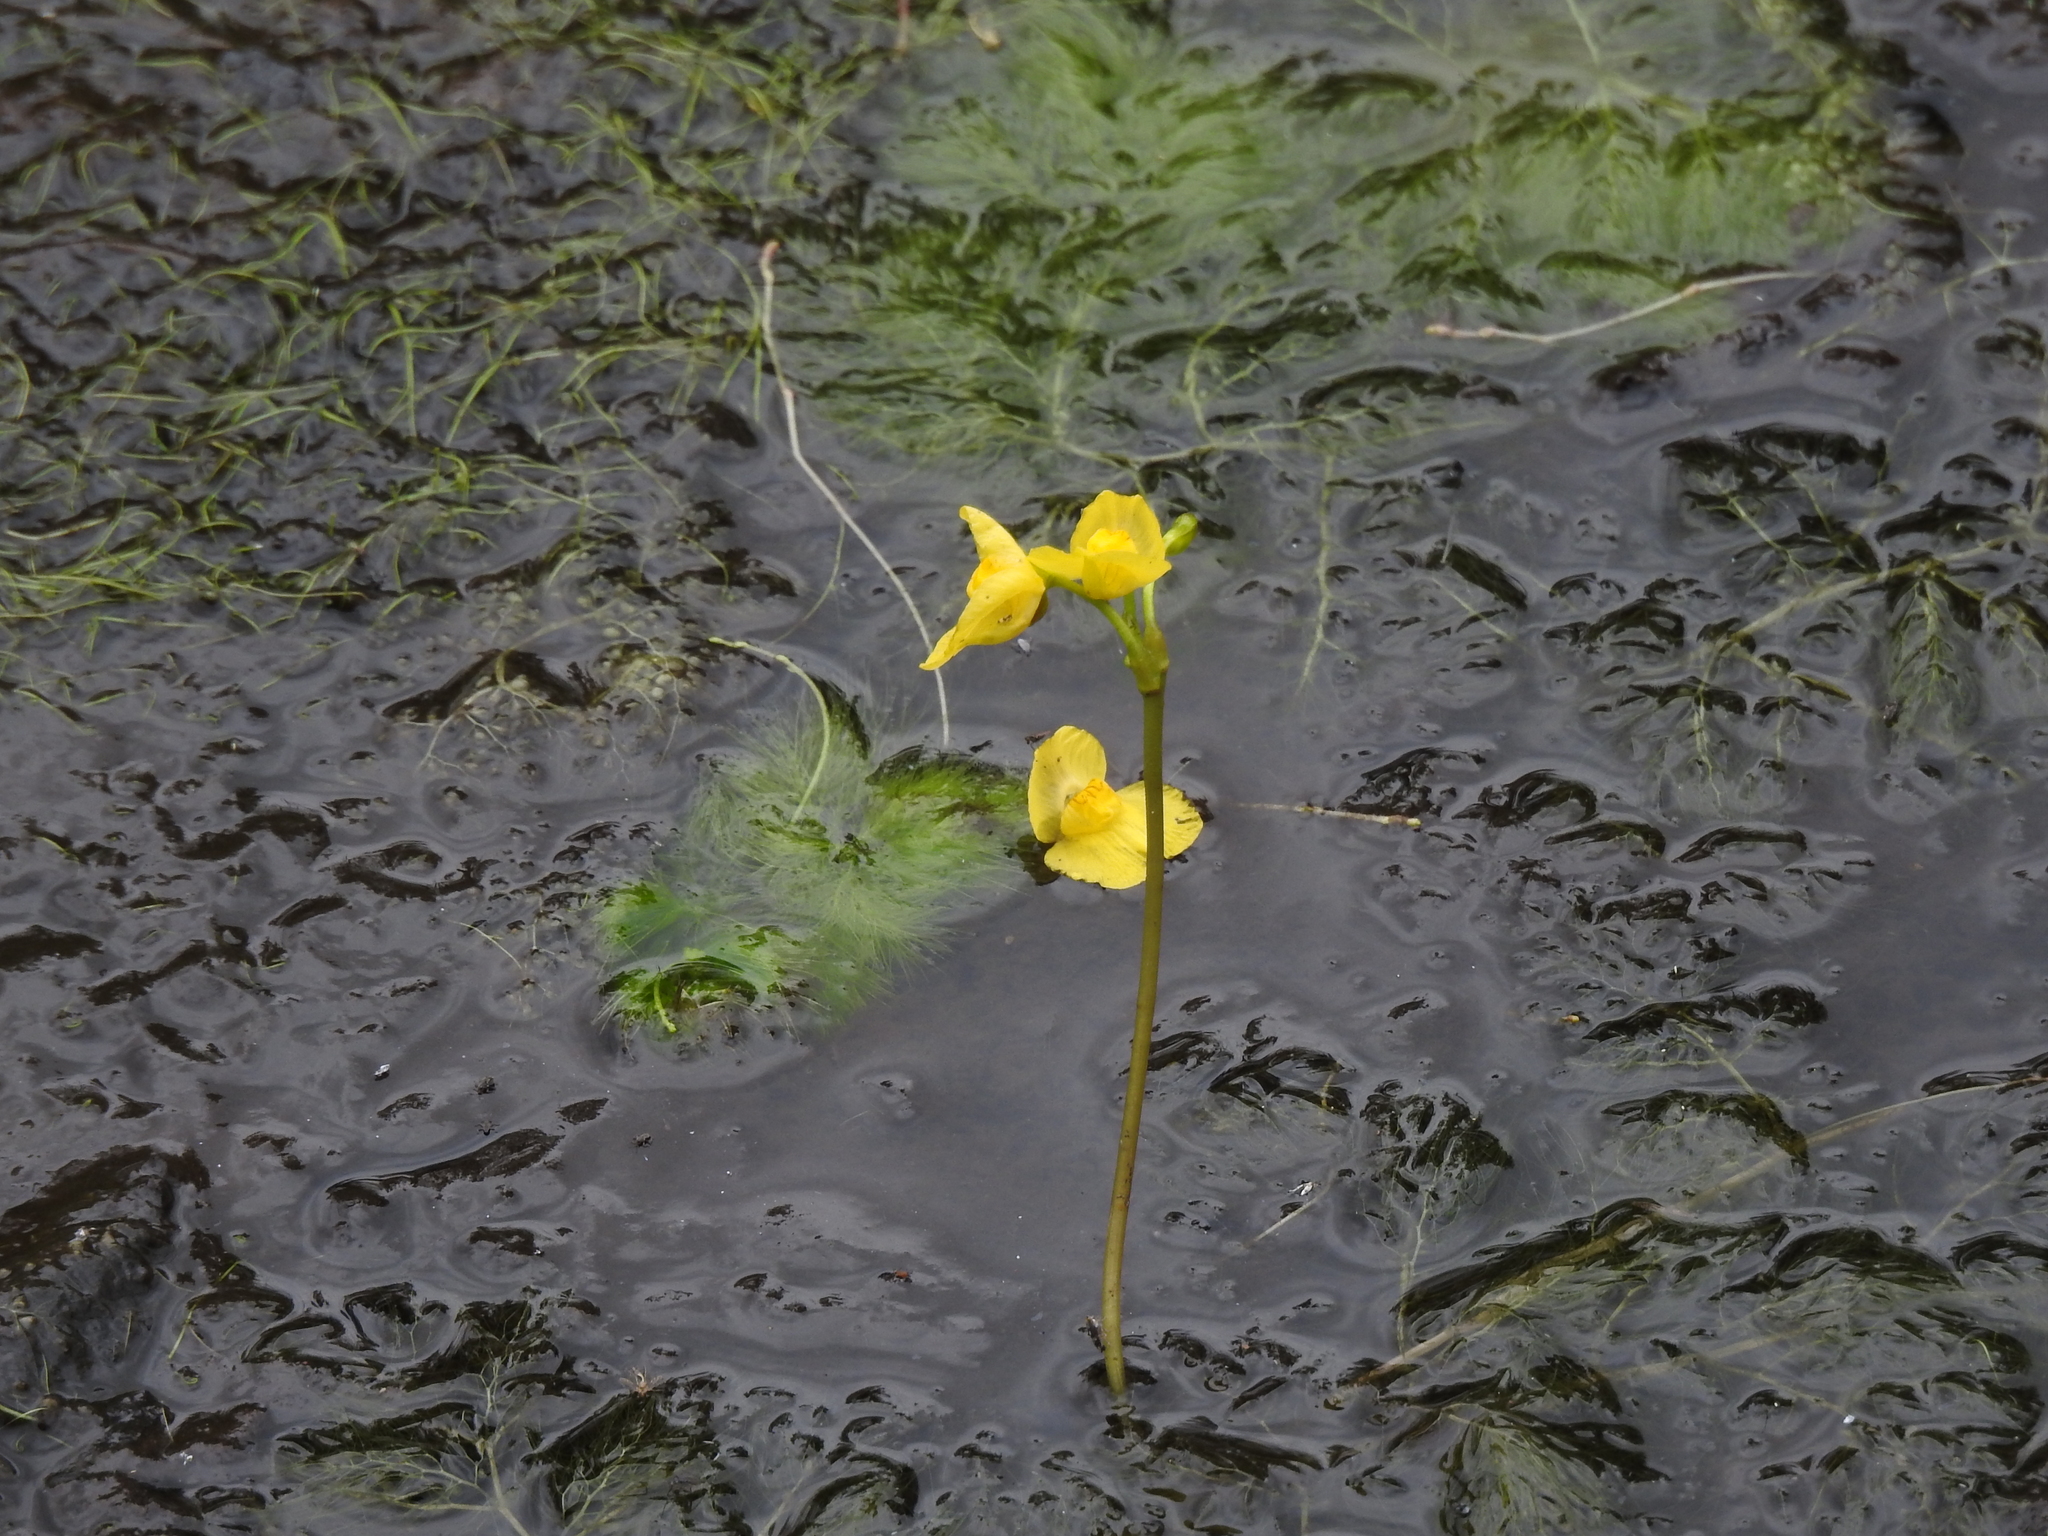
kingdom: Plantae
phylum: Tracheophyta
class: Magnoliopsida
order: Lamiales
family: Lentibulariaceae
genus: Utricularia
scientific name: Utricularia foliosa
